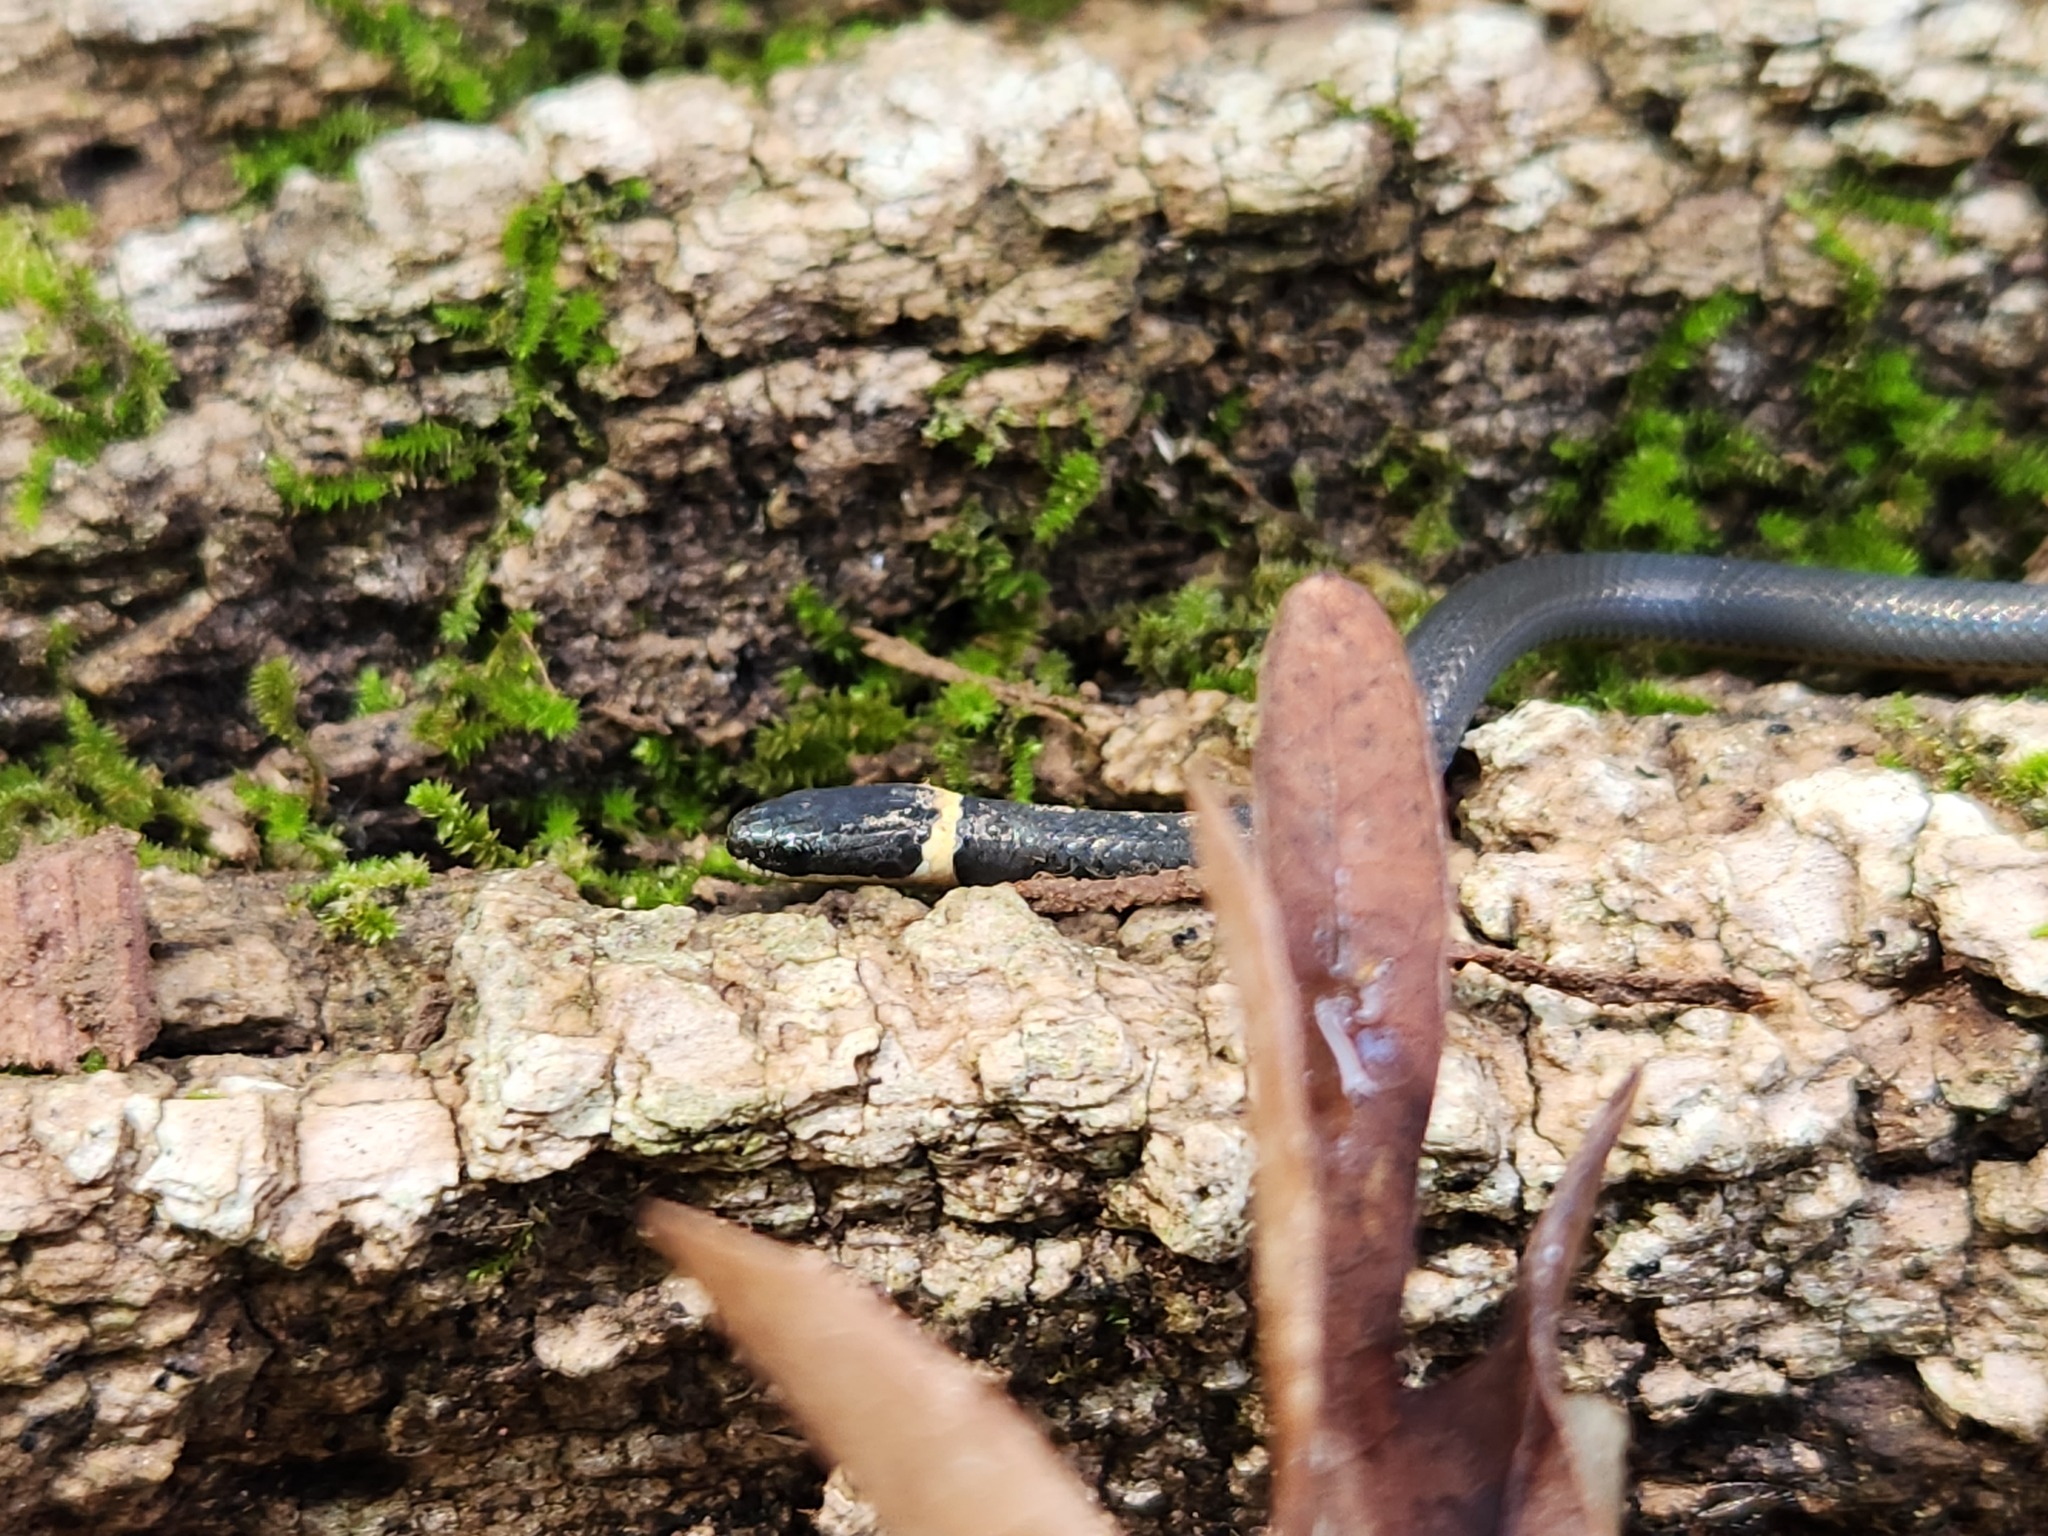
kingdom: Animalia
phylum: Chordata
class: Squamata
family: Colubridae
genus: Diadophis
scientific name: Diadophis punctatus
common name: Ringneck snake
